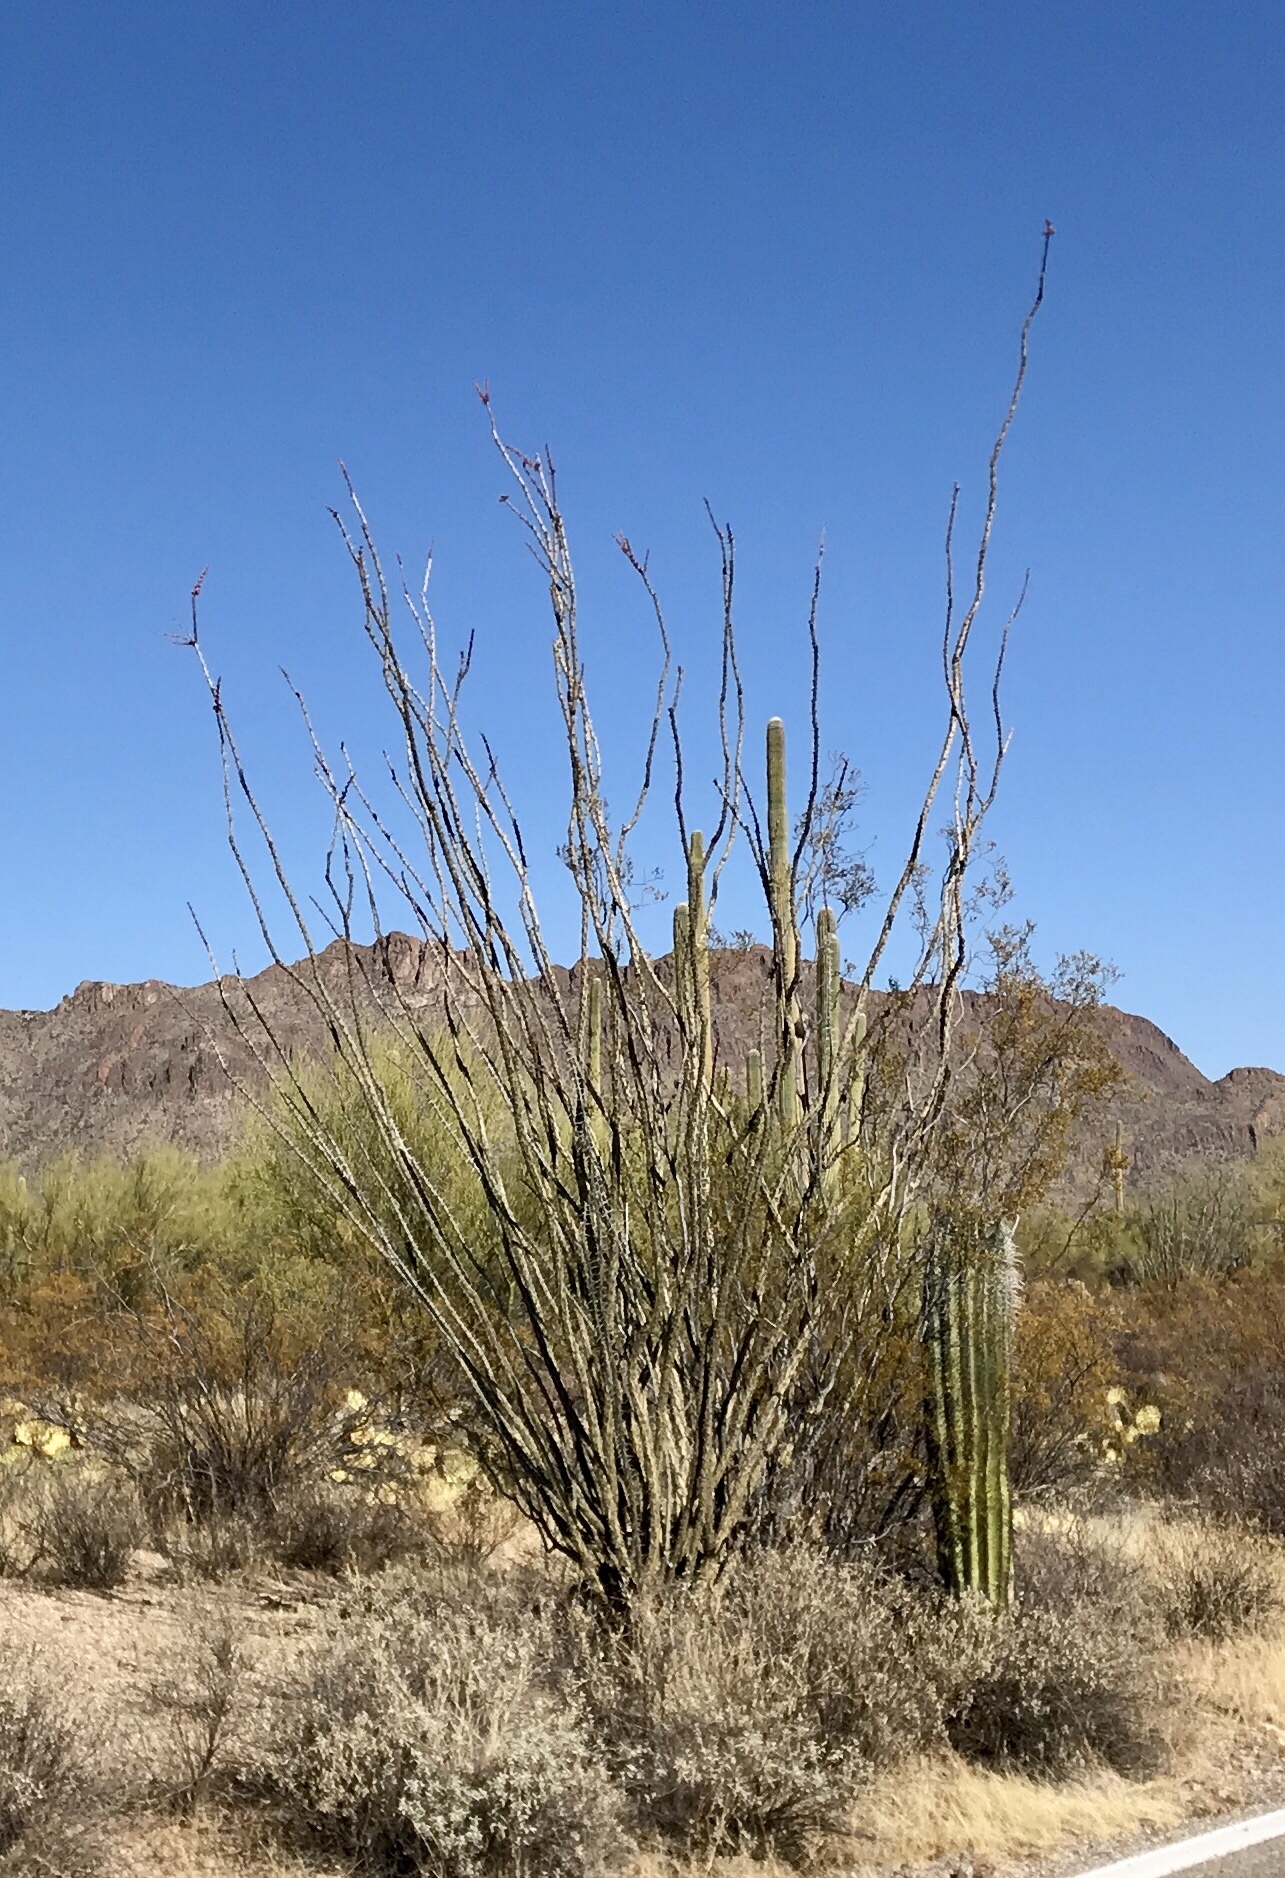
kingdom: Plantae
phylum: Tracheophyta
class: Magnoliopsida
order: Ericales
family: Fouquieriaceae
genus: Fouquieria
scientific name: Fouquieria splendens
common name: Vine-cactus
